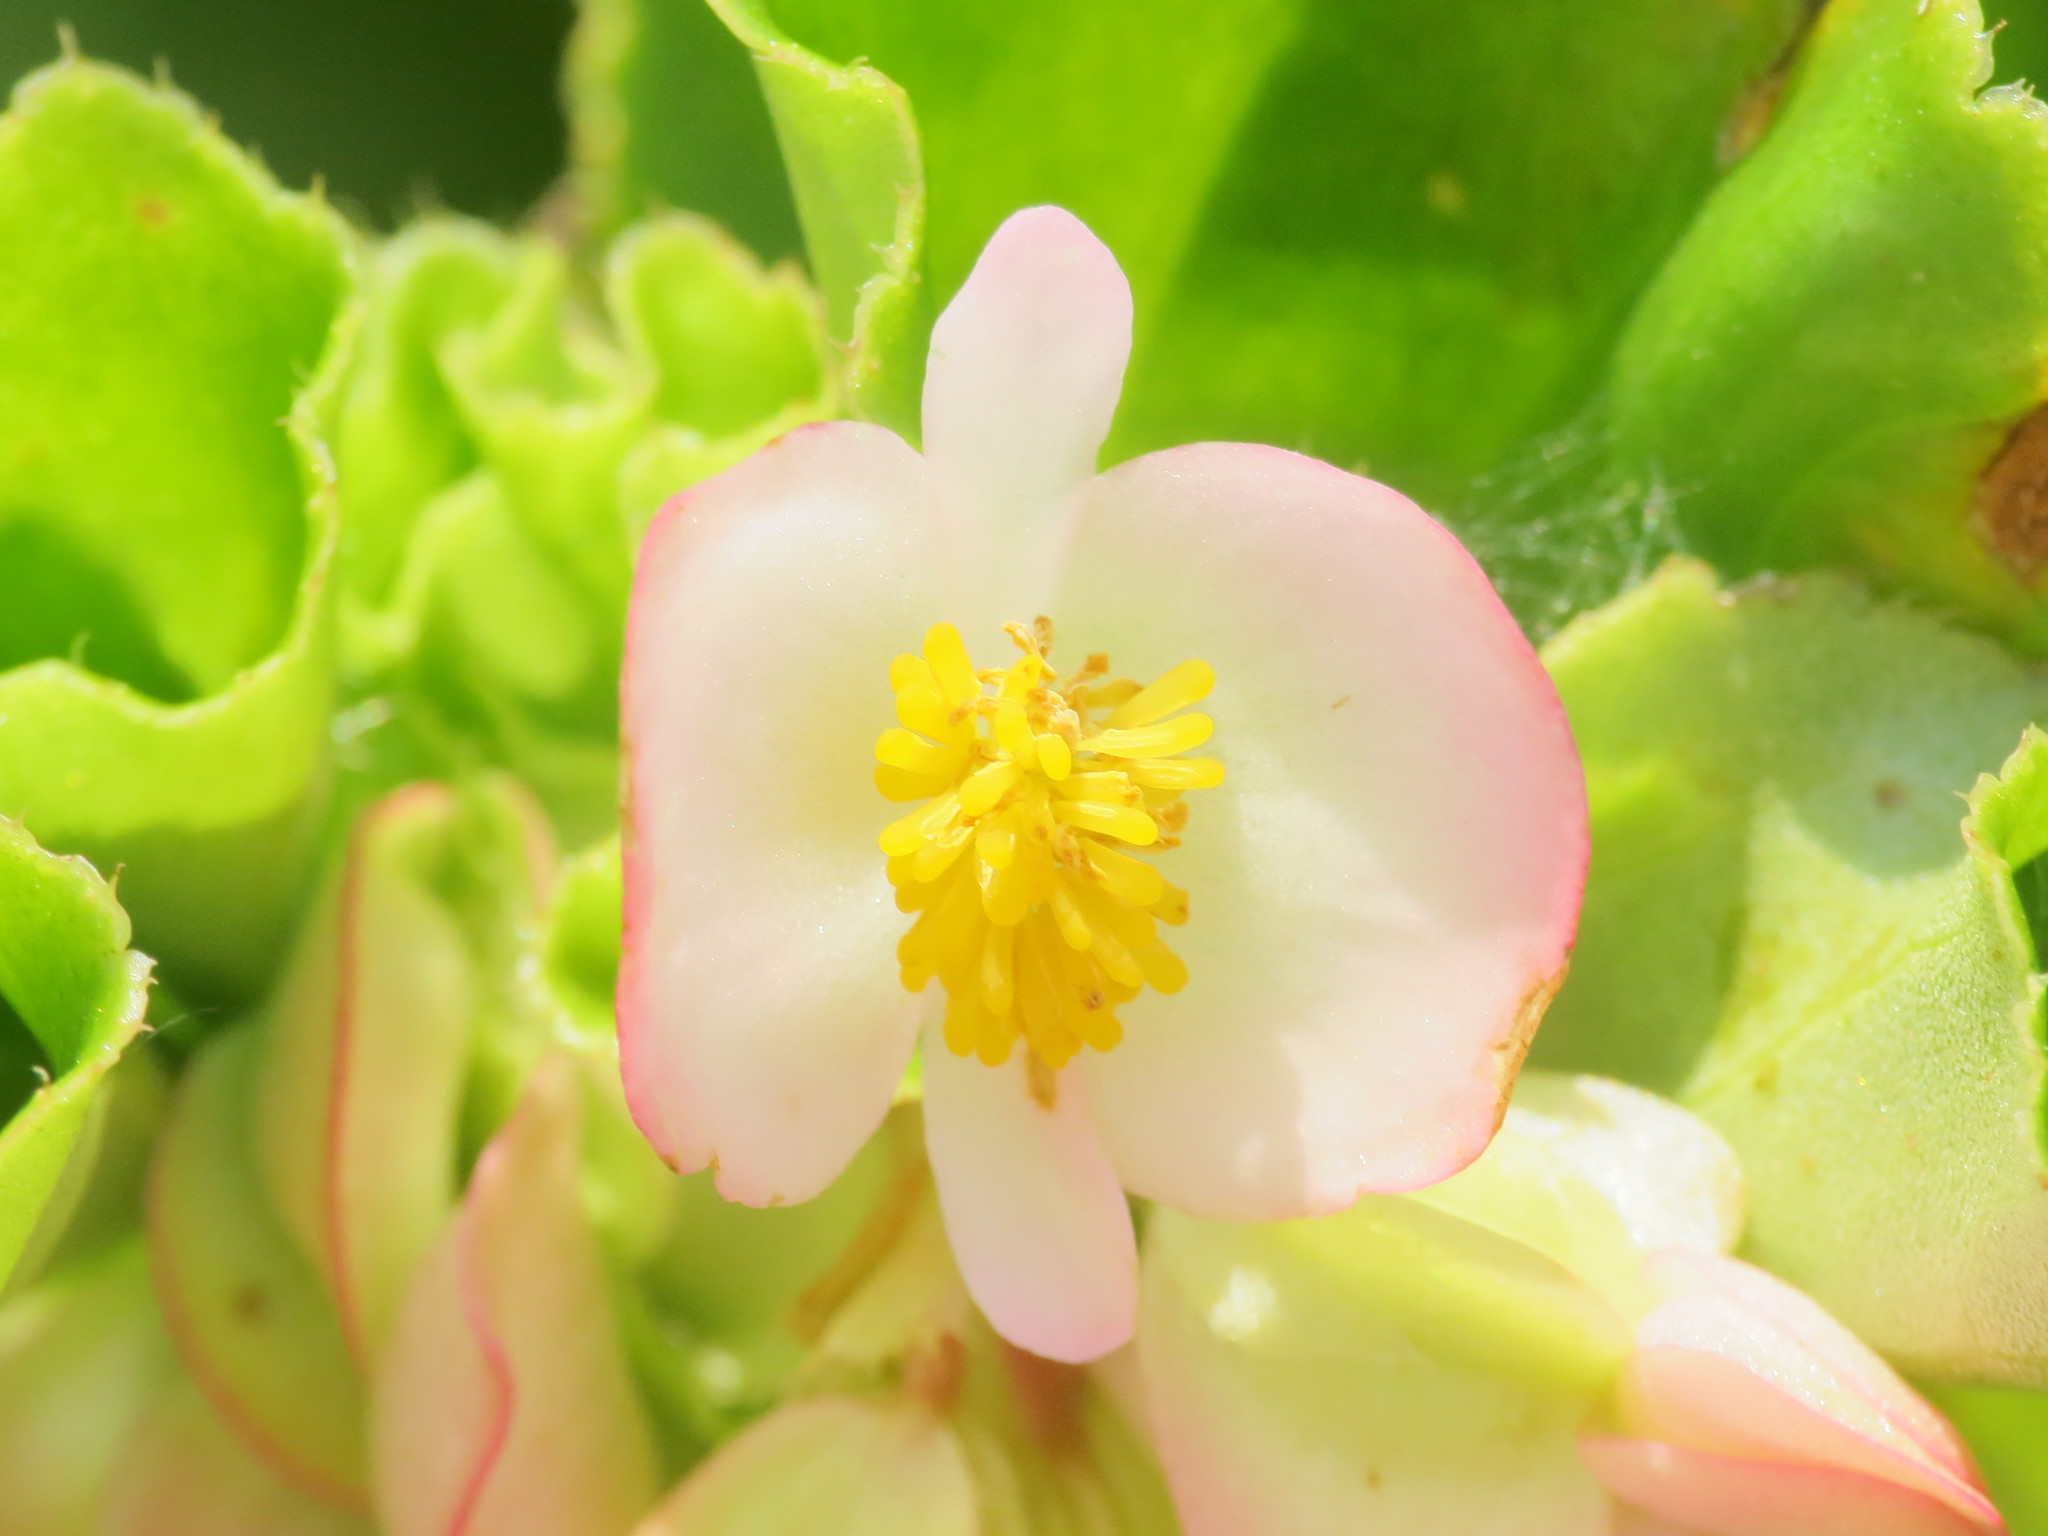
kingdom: Plantae
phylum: Tracheophyta
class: Magnoliopsida
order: Cucurbitales
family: Begoniaceae
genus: Begonia
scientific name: Begonia cucullata
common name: Clubbed begonia
